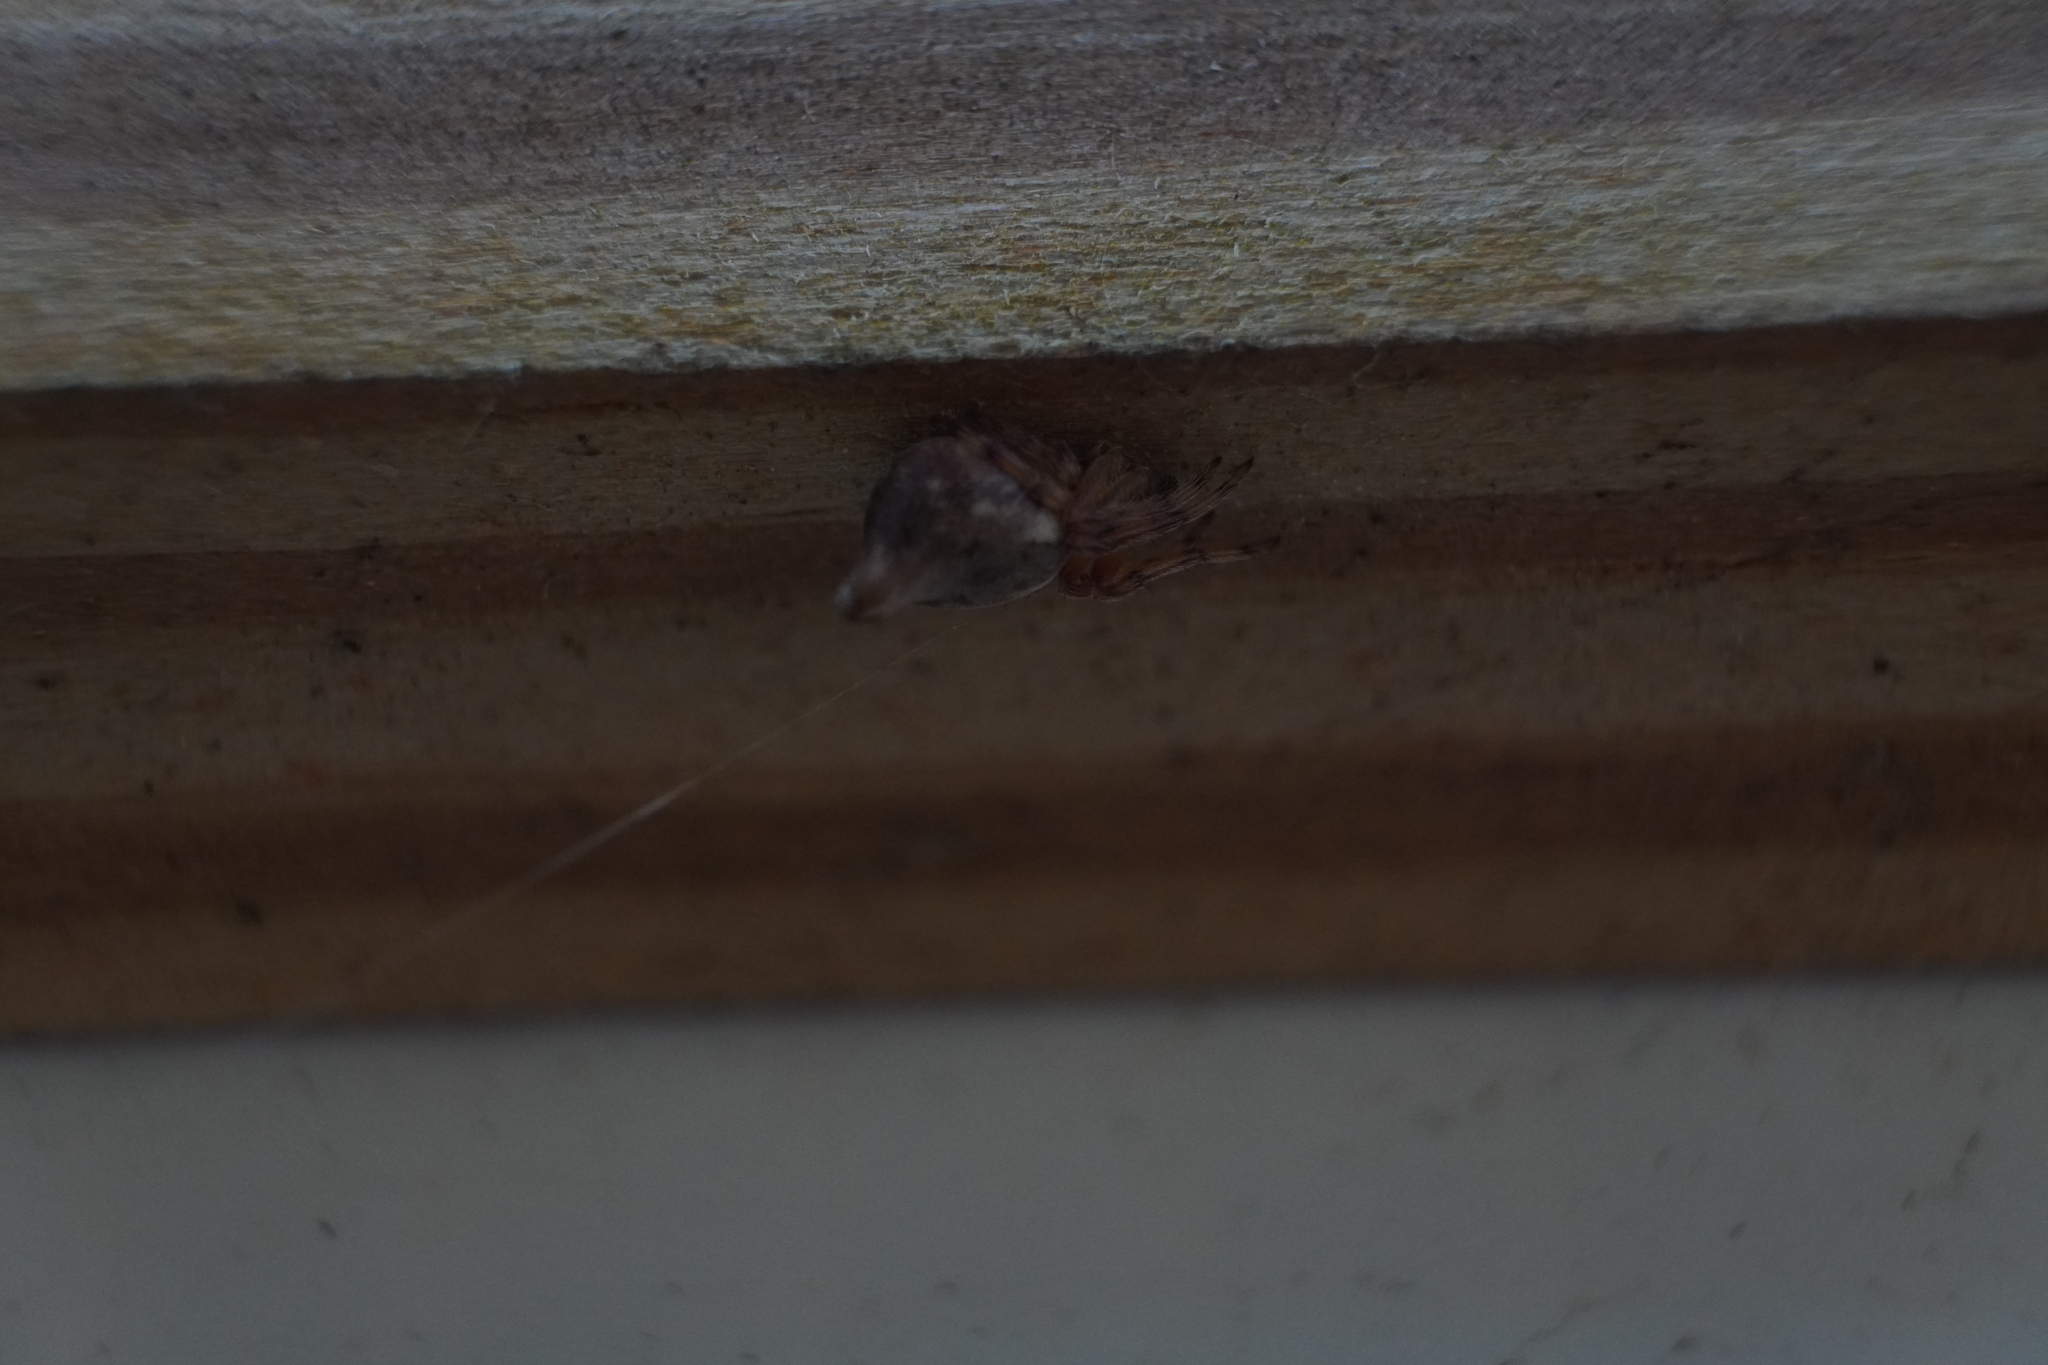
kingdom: Animalia
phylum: Arthropoda
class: Arachnida
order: Araneae
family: Araneidae
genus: Cyclosa
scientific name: Cyclosa conica
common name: Conical trashline orbweaver
